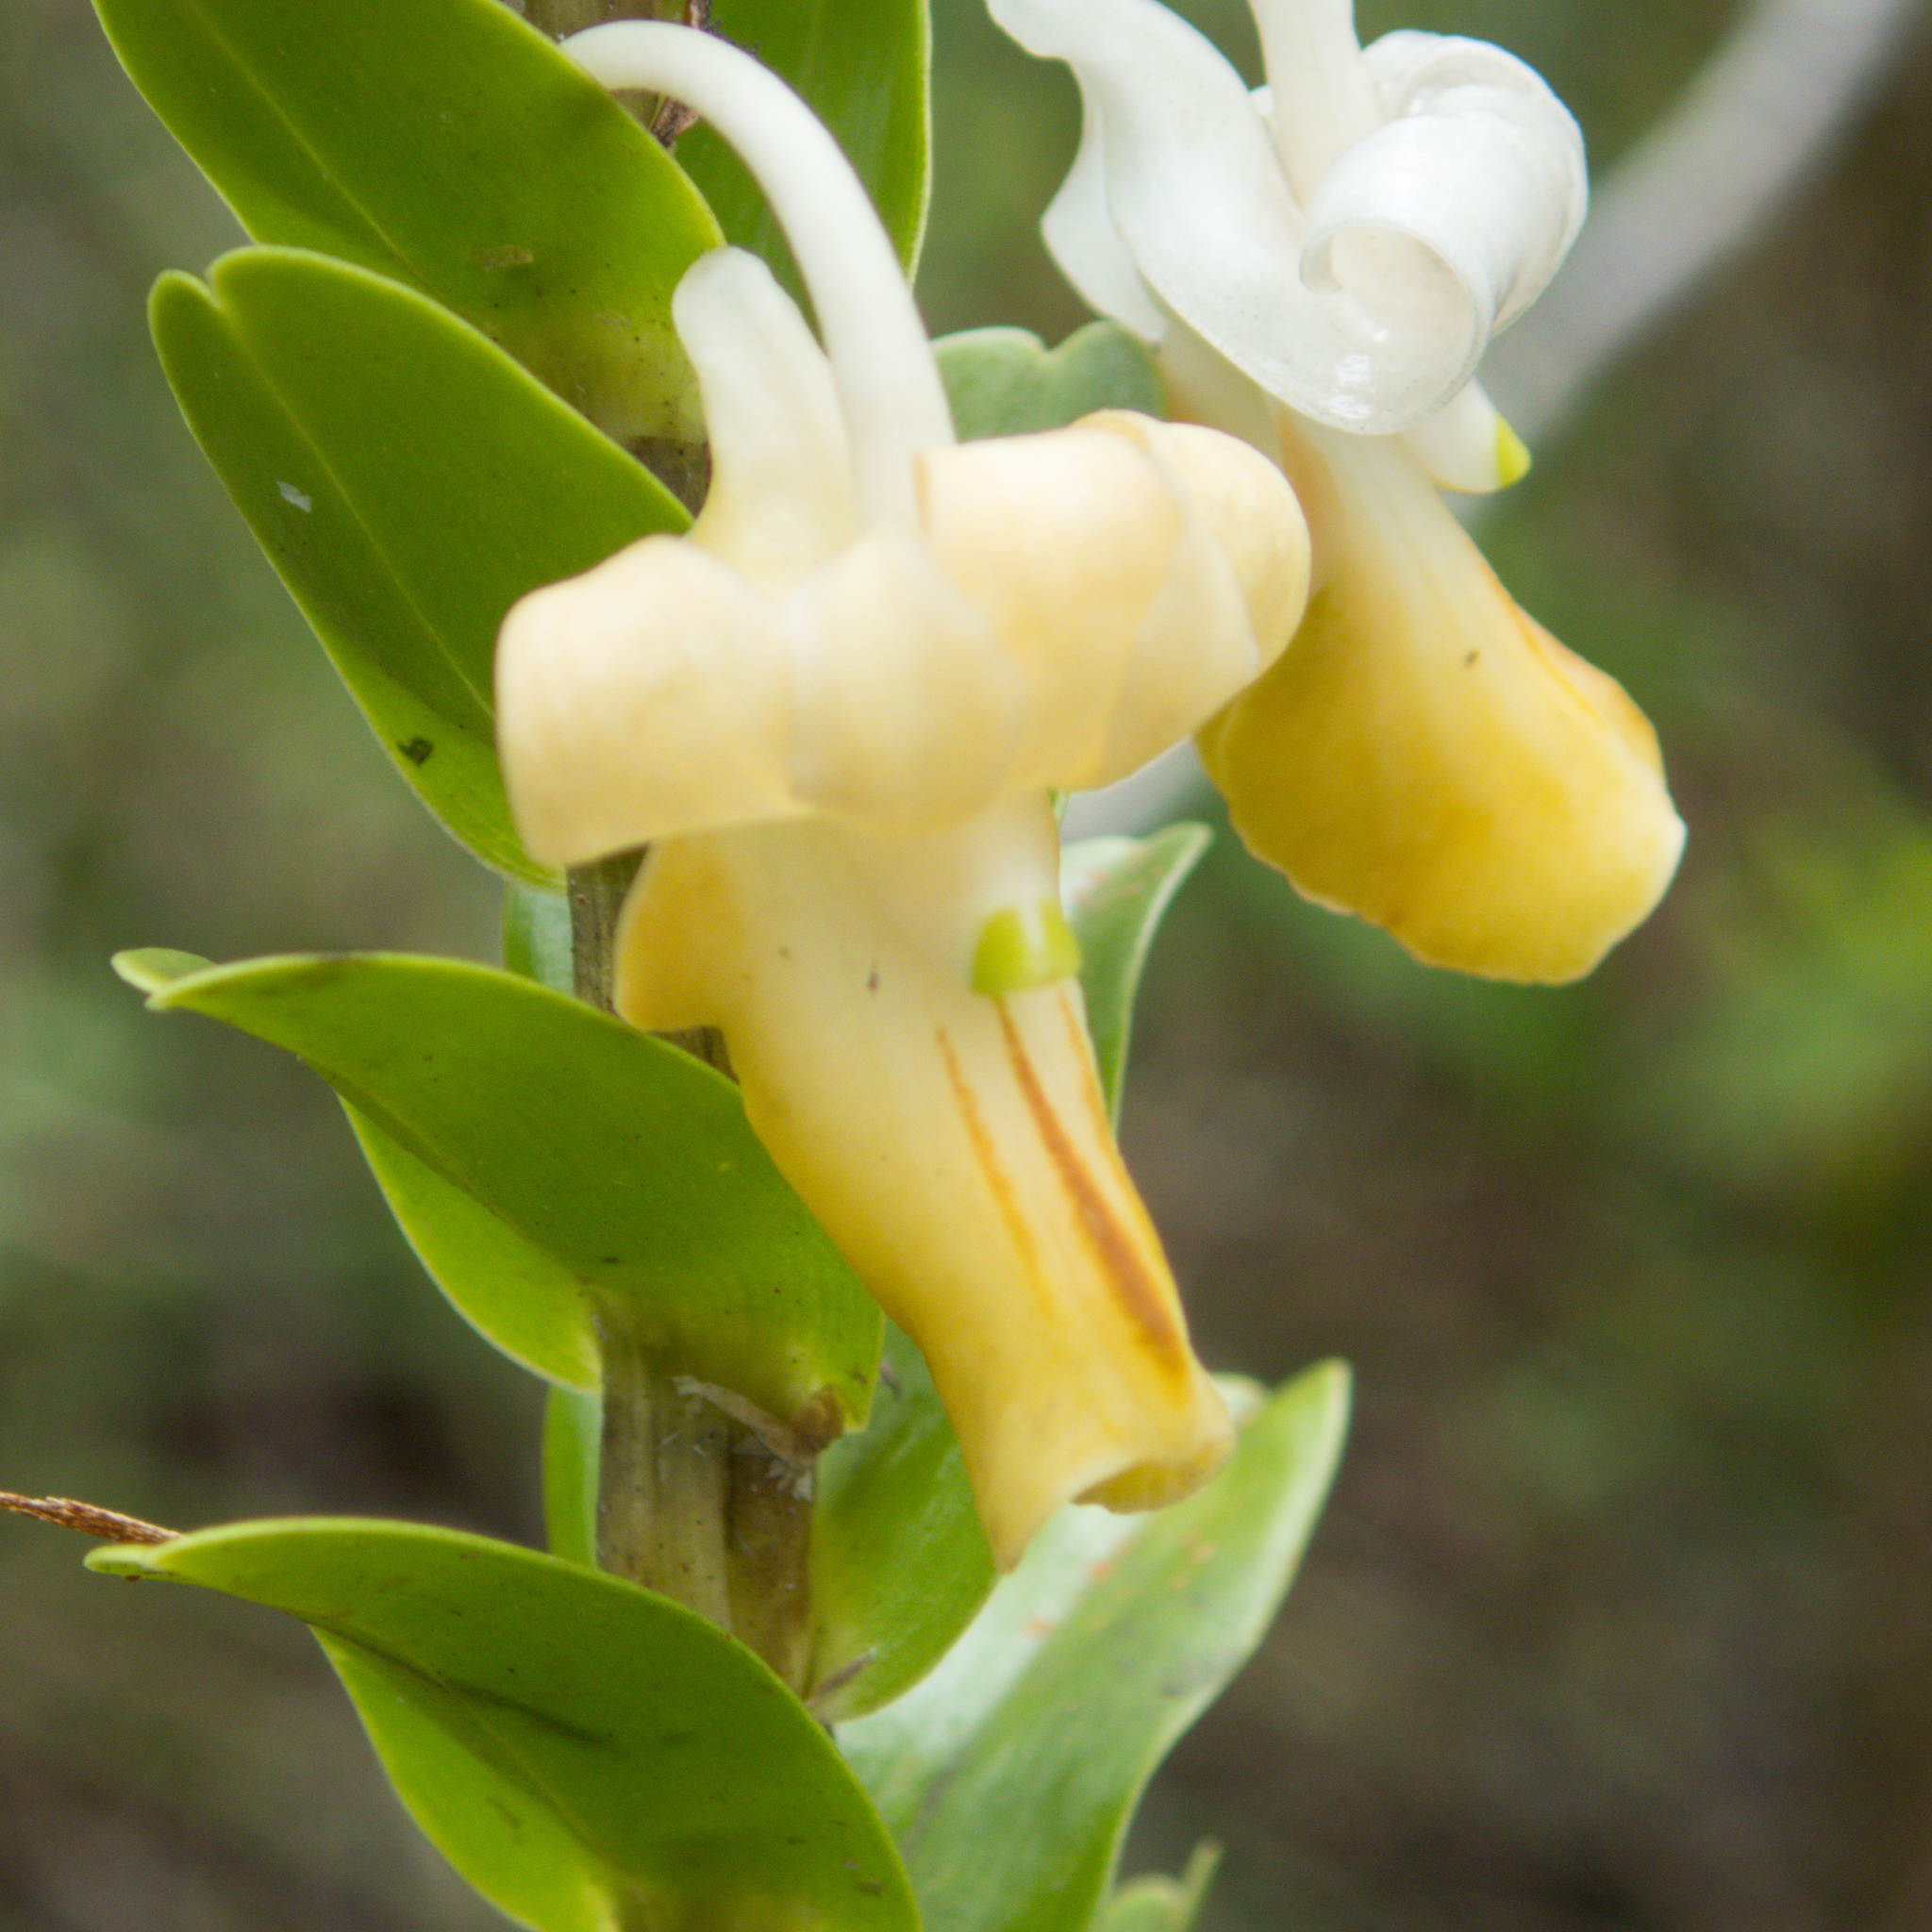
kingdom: Plantae
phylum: Tracheophyta
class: Liliopsida
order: Asparagales
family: Orchidaceae
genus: Dendrobium
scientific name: Dendrobium ellipsophyllum
